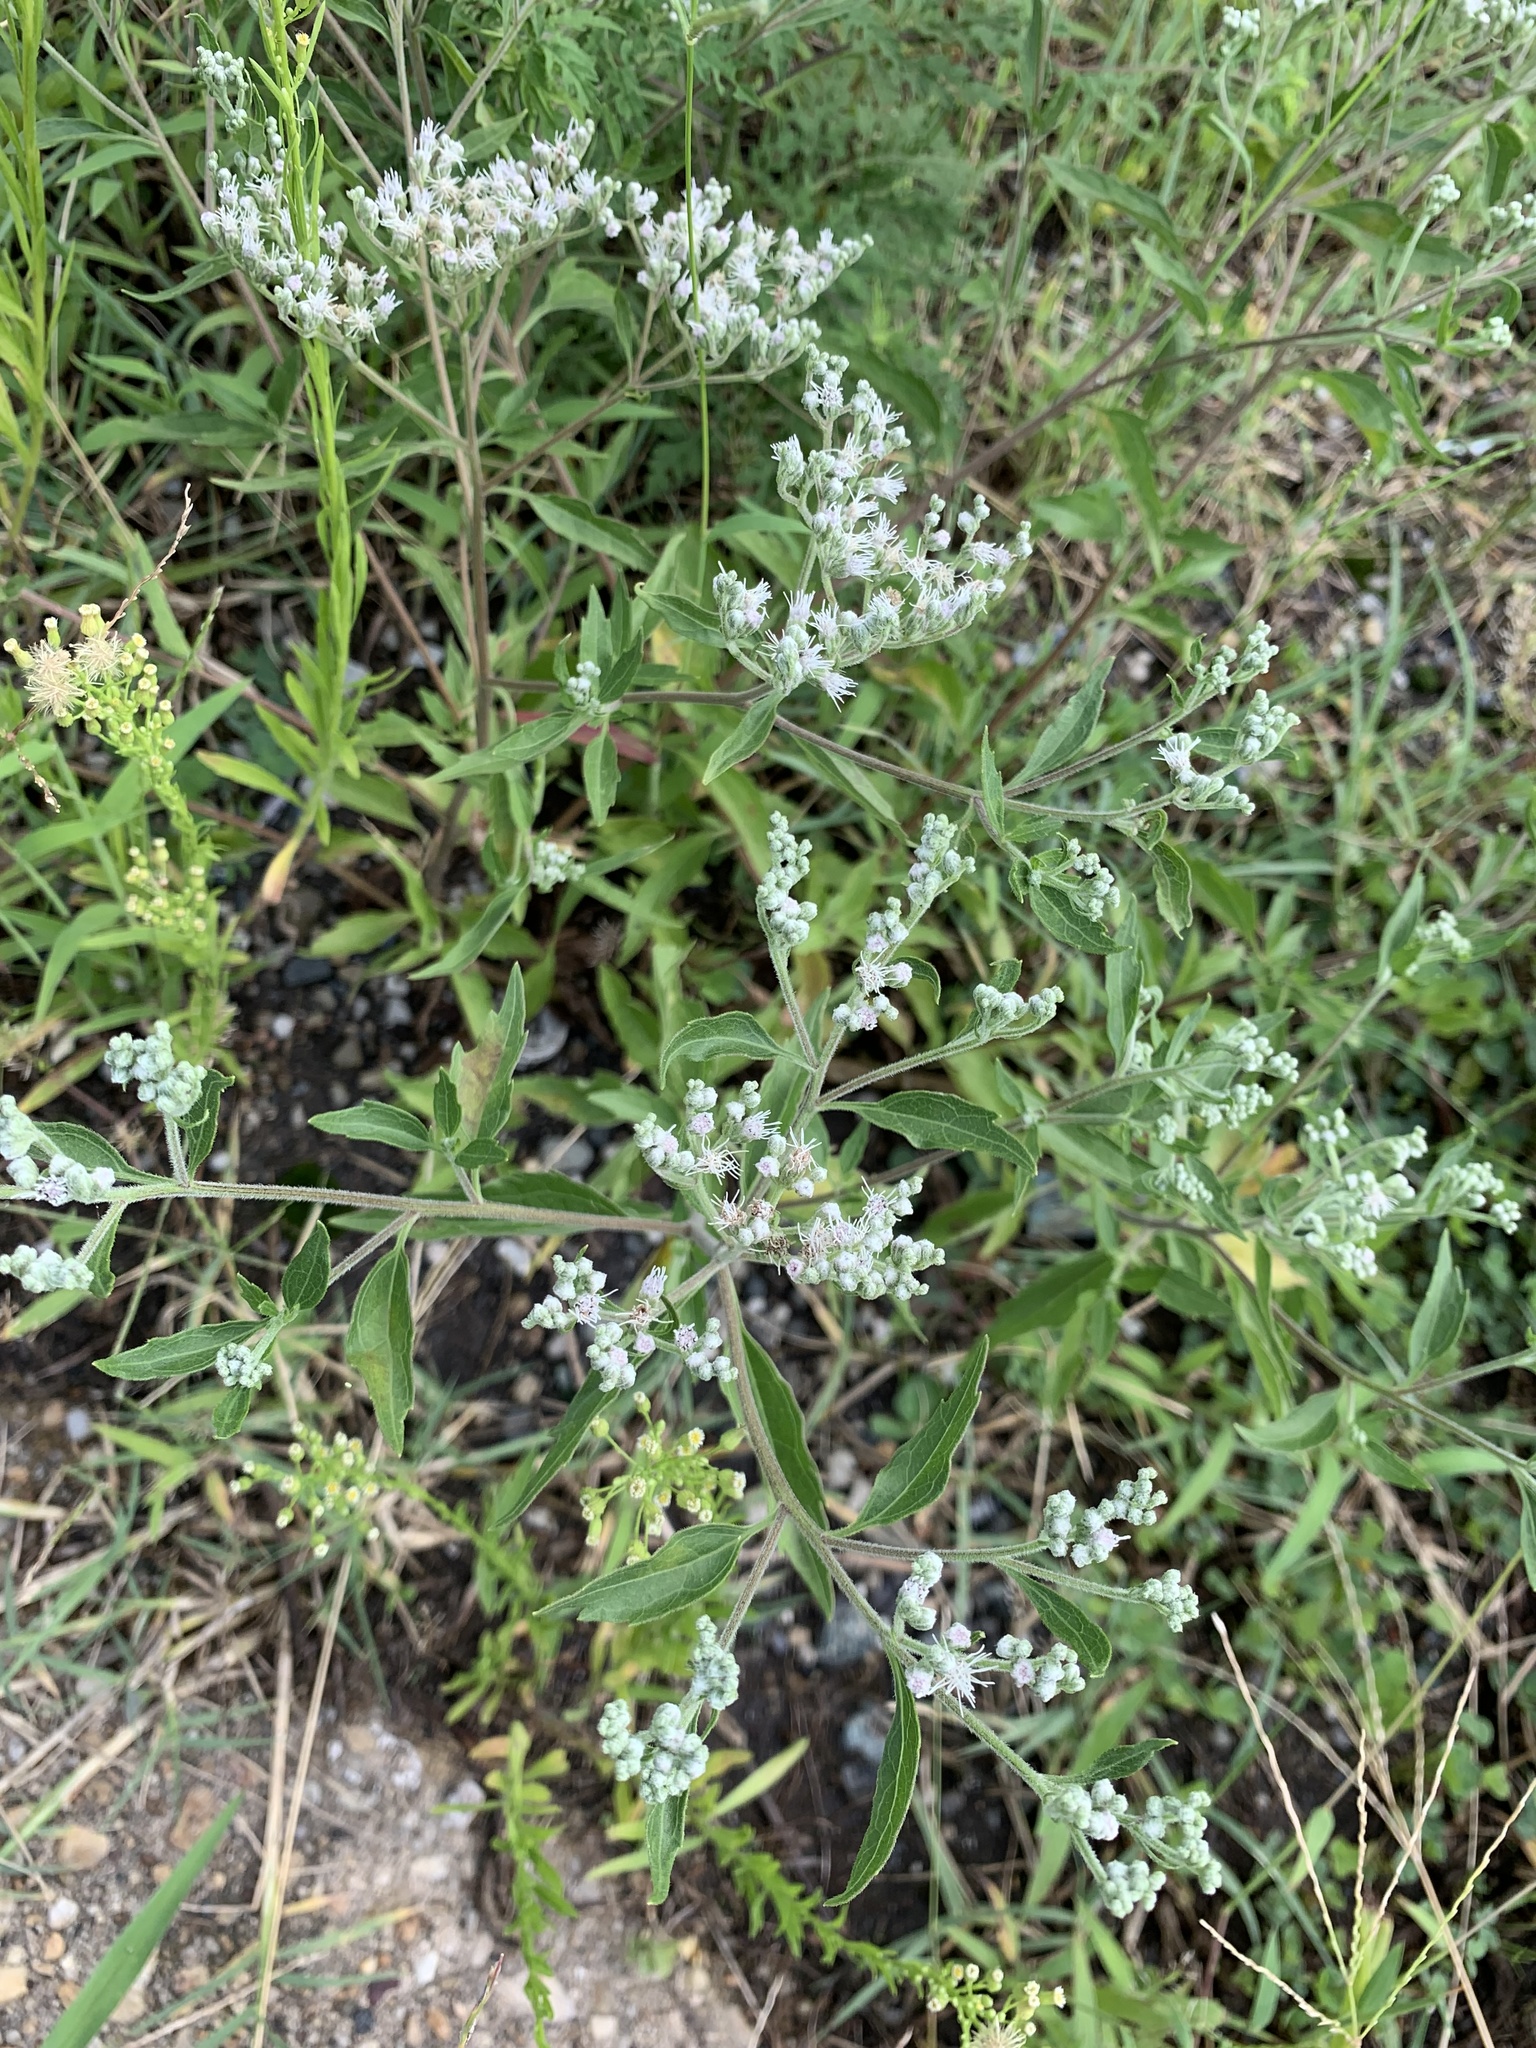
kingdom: Plantae
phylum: Tracheophyta
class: Magnoliopsida
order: Asterales
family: Asteraceae
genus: Eupatorium
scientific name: Eupatorium serotinum
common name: Late boneset
